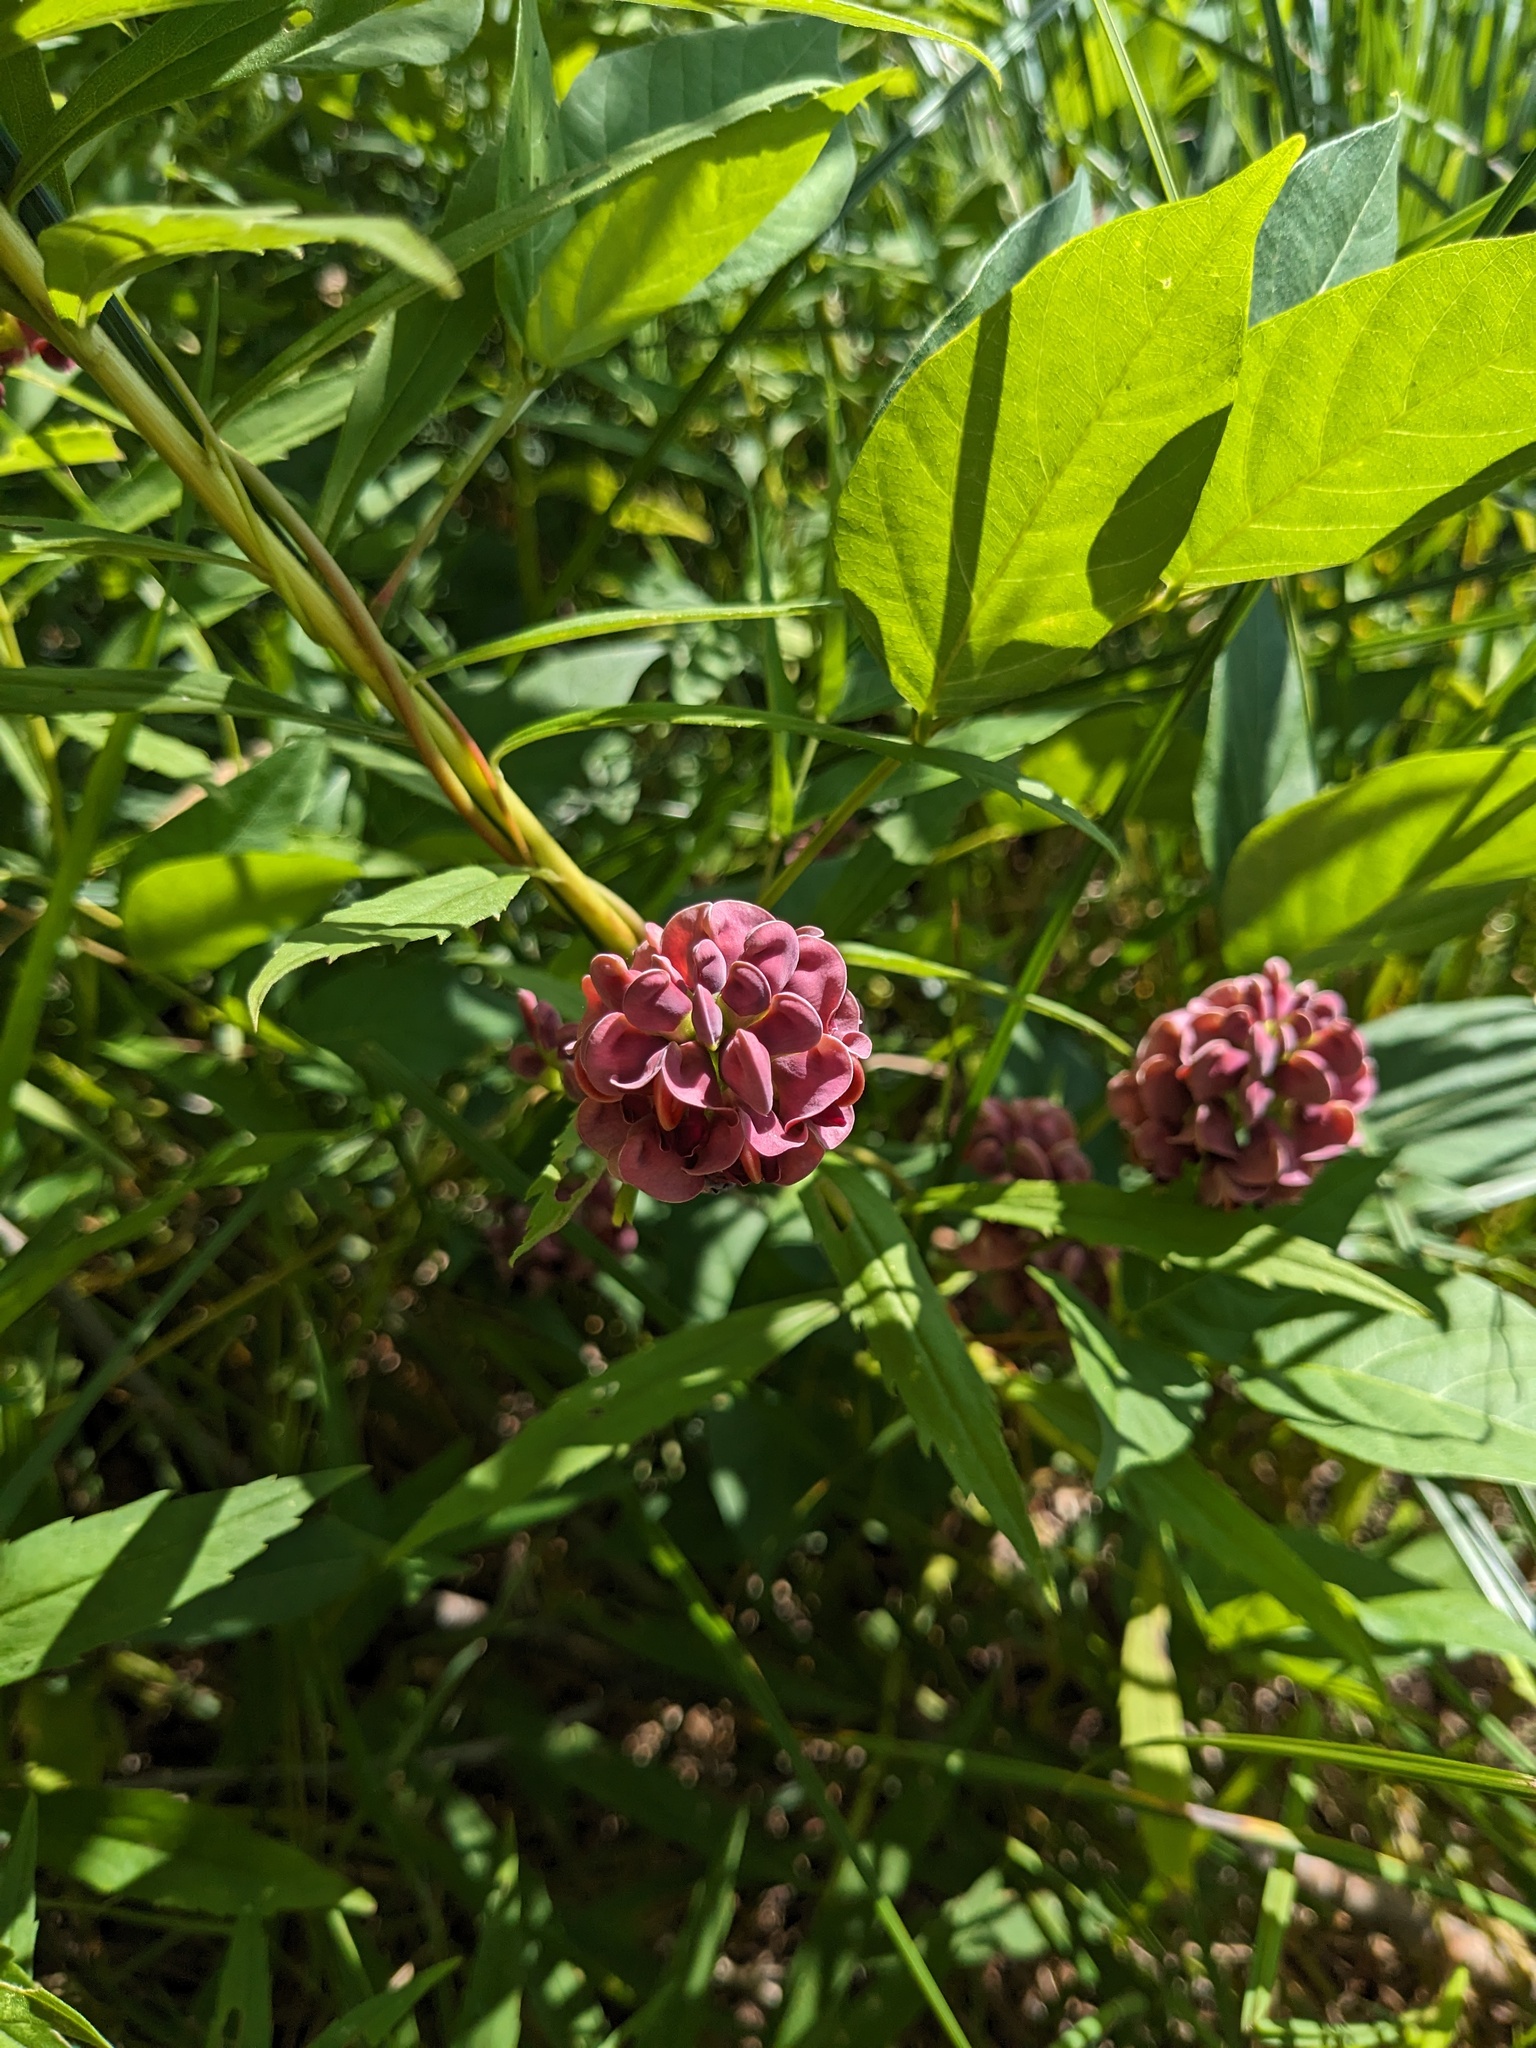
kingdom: Plantae
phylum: Tracheophyta
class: Magnoliopsida
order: Fabales
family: Fabaceae
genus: Apios
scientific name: Apios americana
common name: American potato-bean
